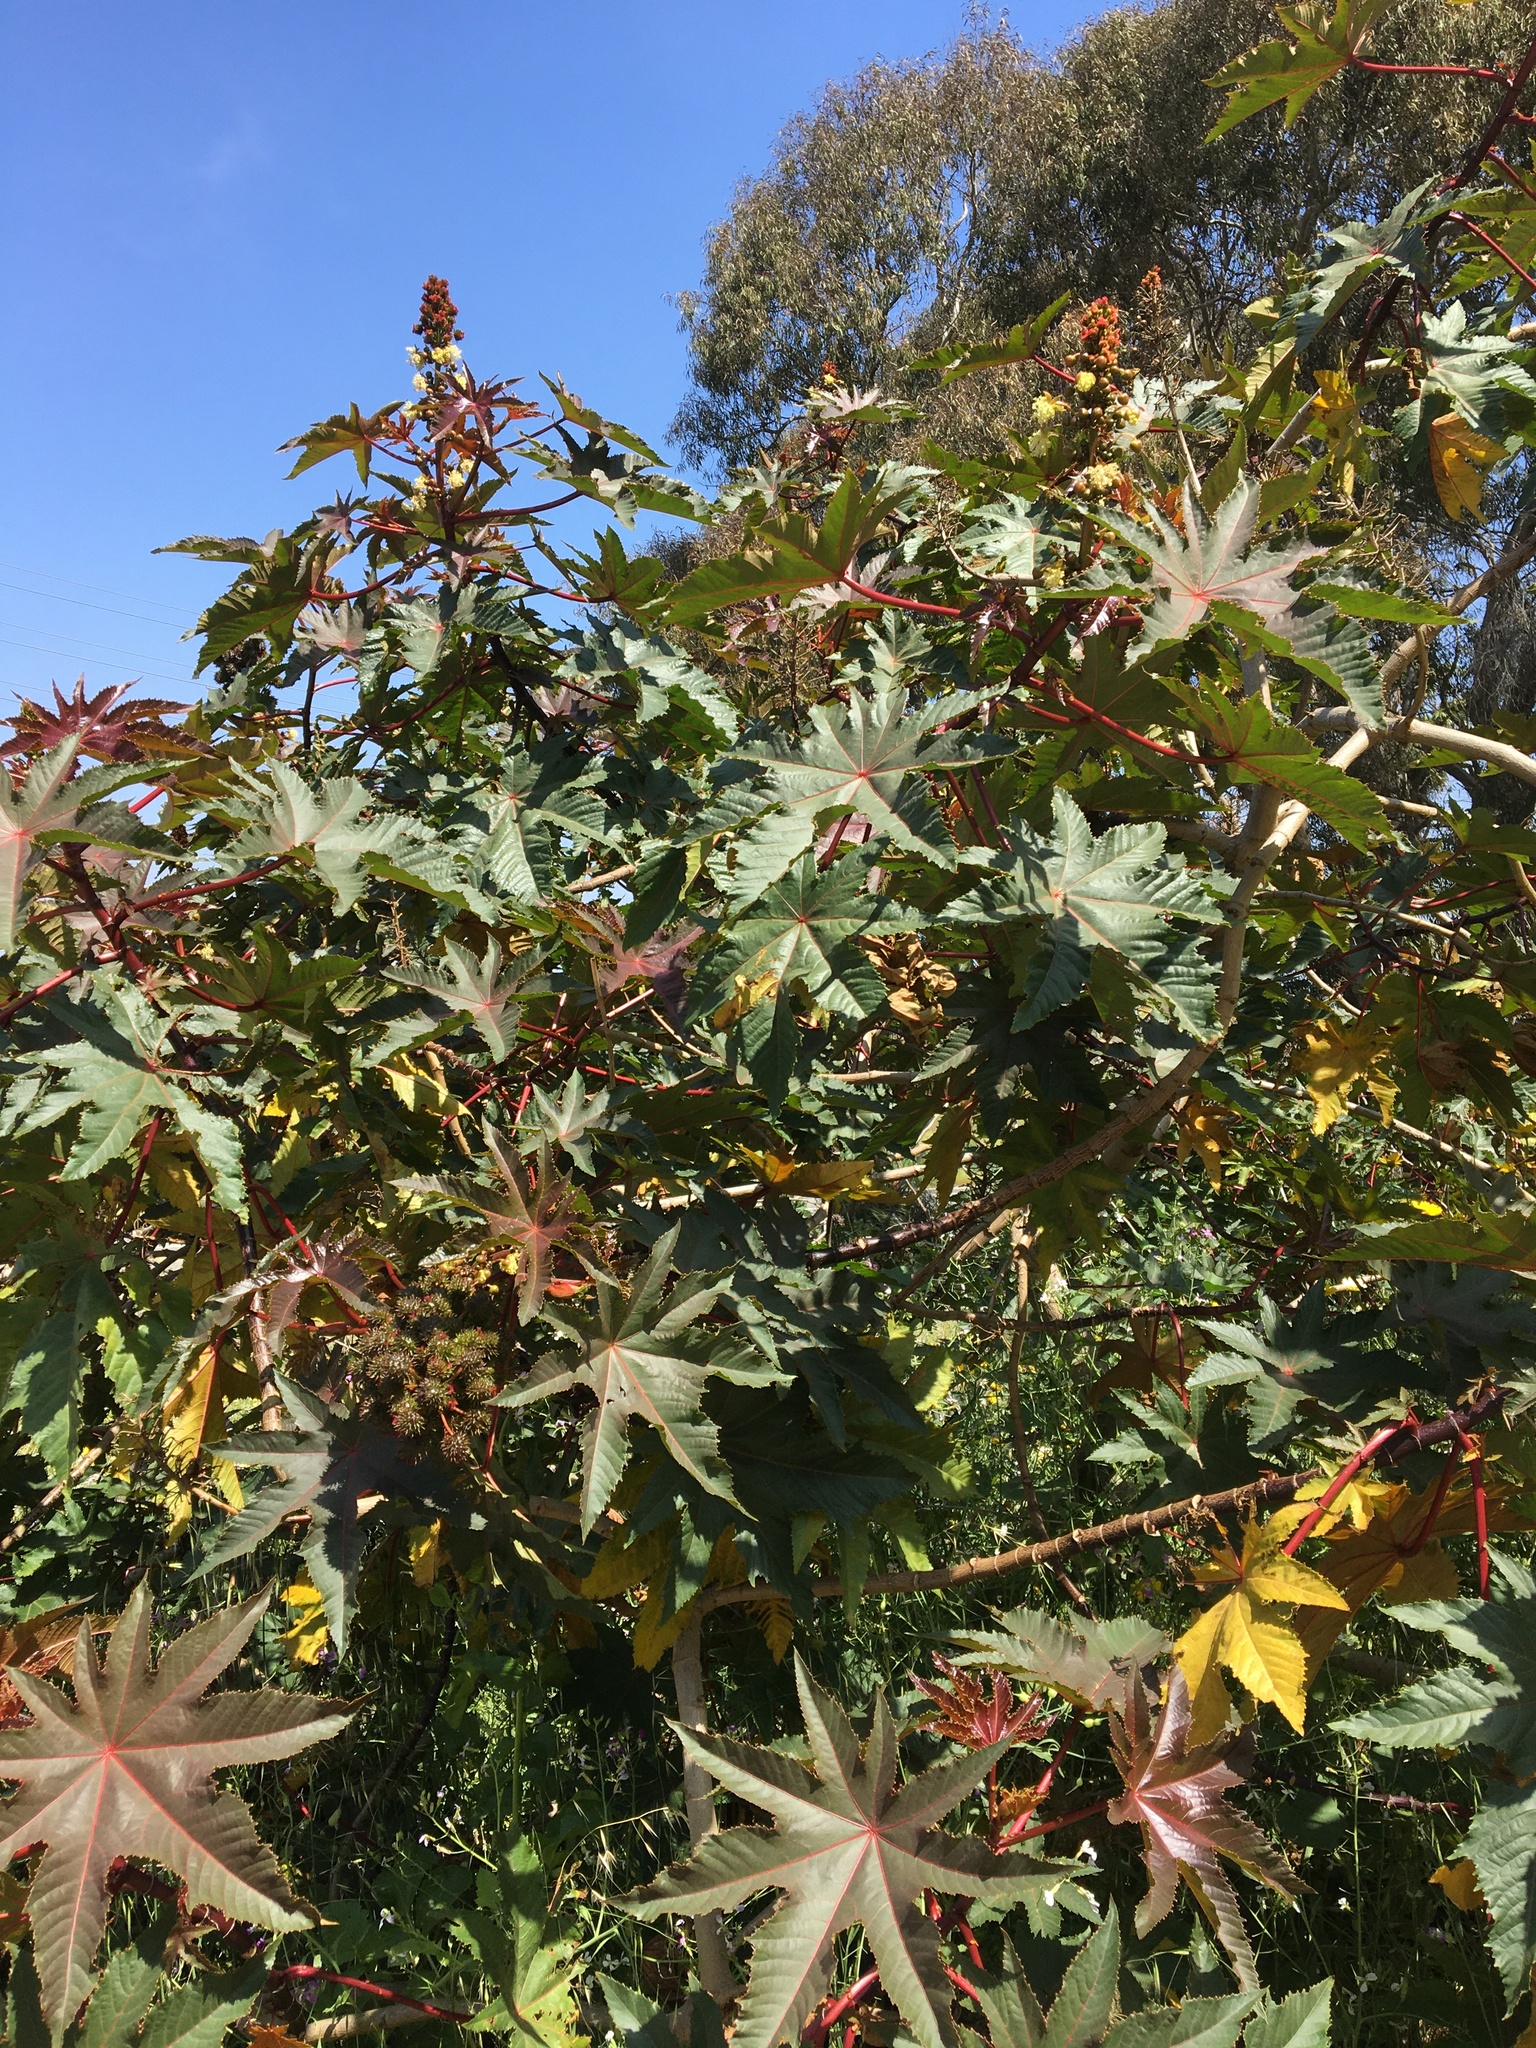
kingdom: Plantae
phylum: Tracheophyta
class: Magnoliopsida
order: Malpighiales
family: Euphorbiaceae
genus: Ricinus
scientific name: Ricinus communis
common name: Castor-oil-plant
